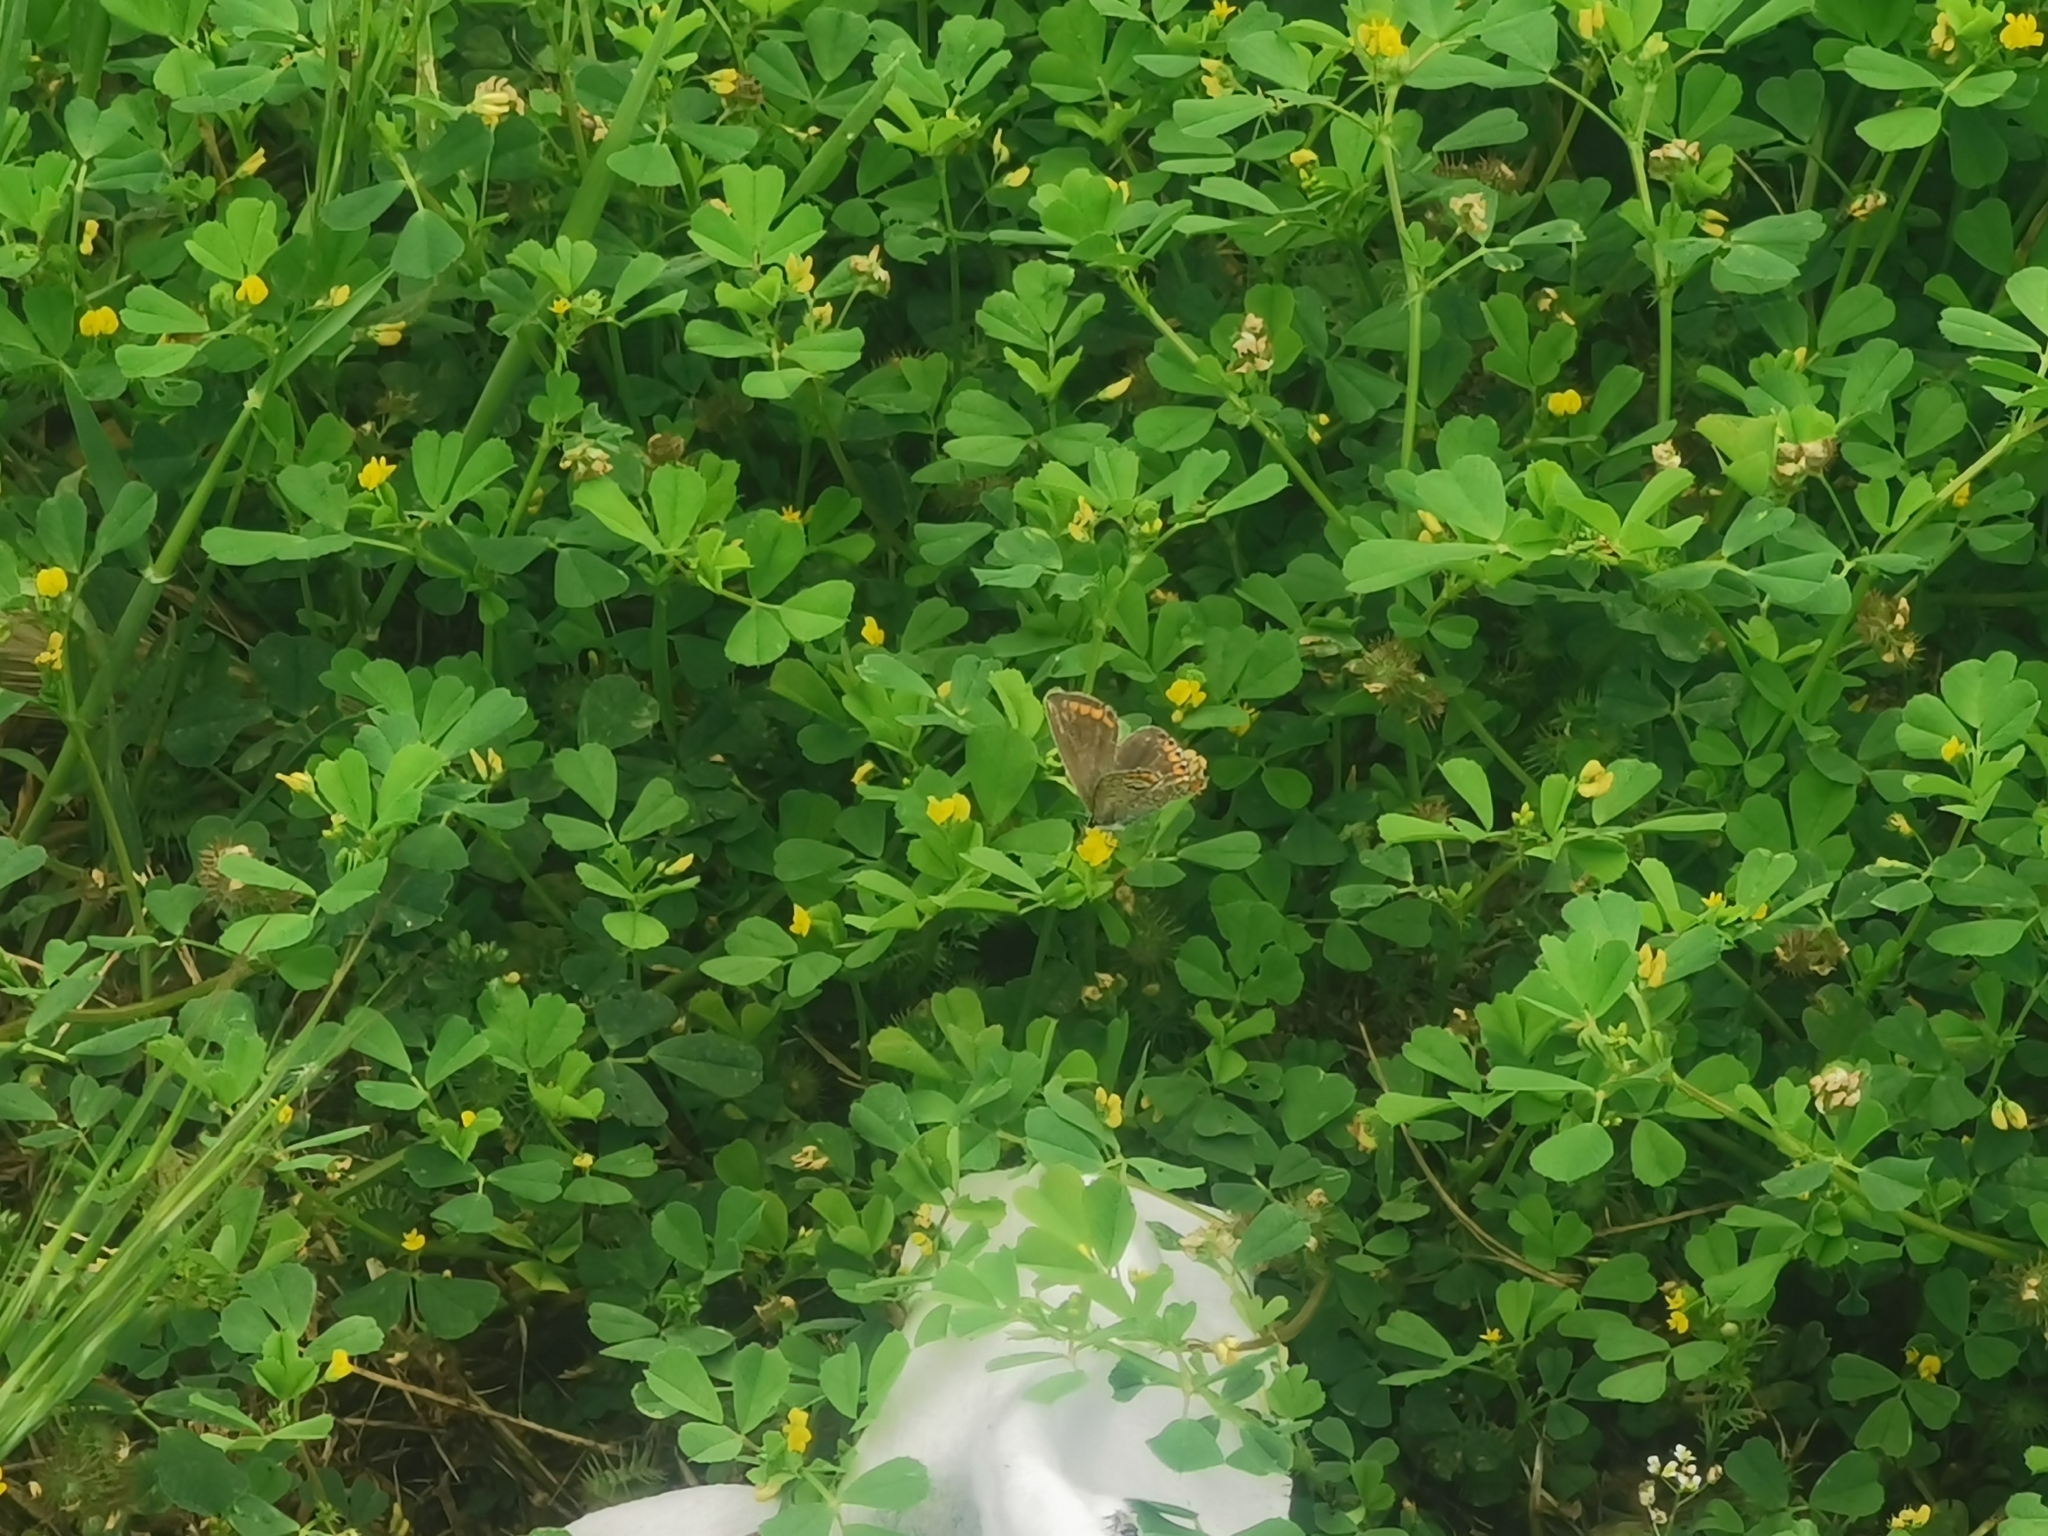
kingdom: Animalia
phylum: Arthropoda
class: Insecta
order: Lepidoptera
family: Lycaenidae
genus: Polyommatus
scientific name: Polyommatus icarus
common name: Common blue
